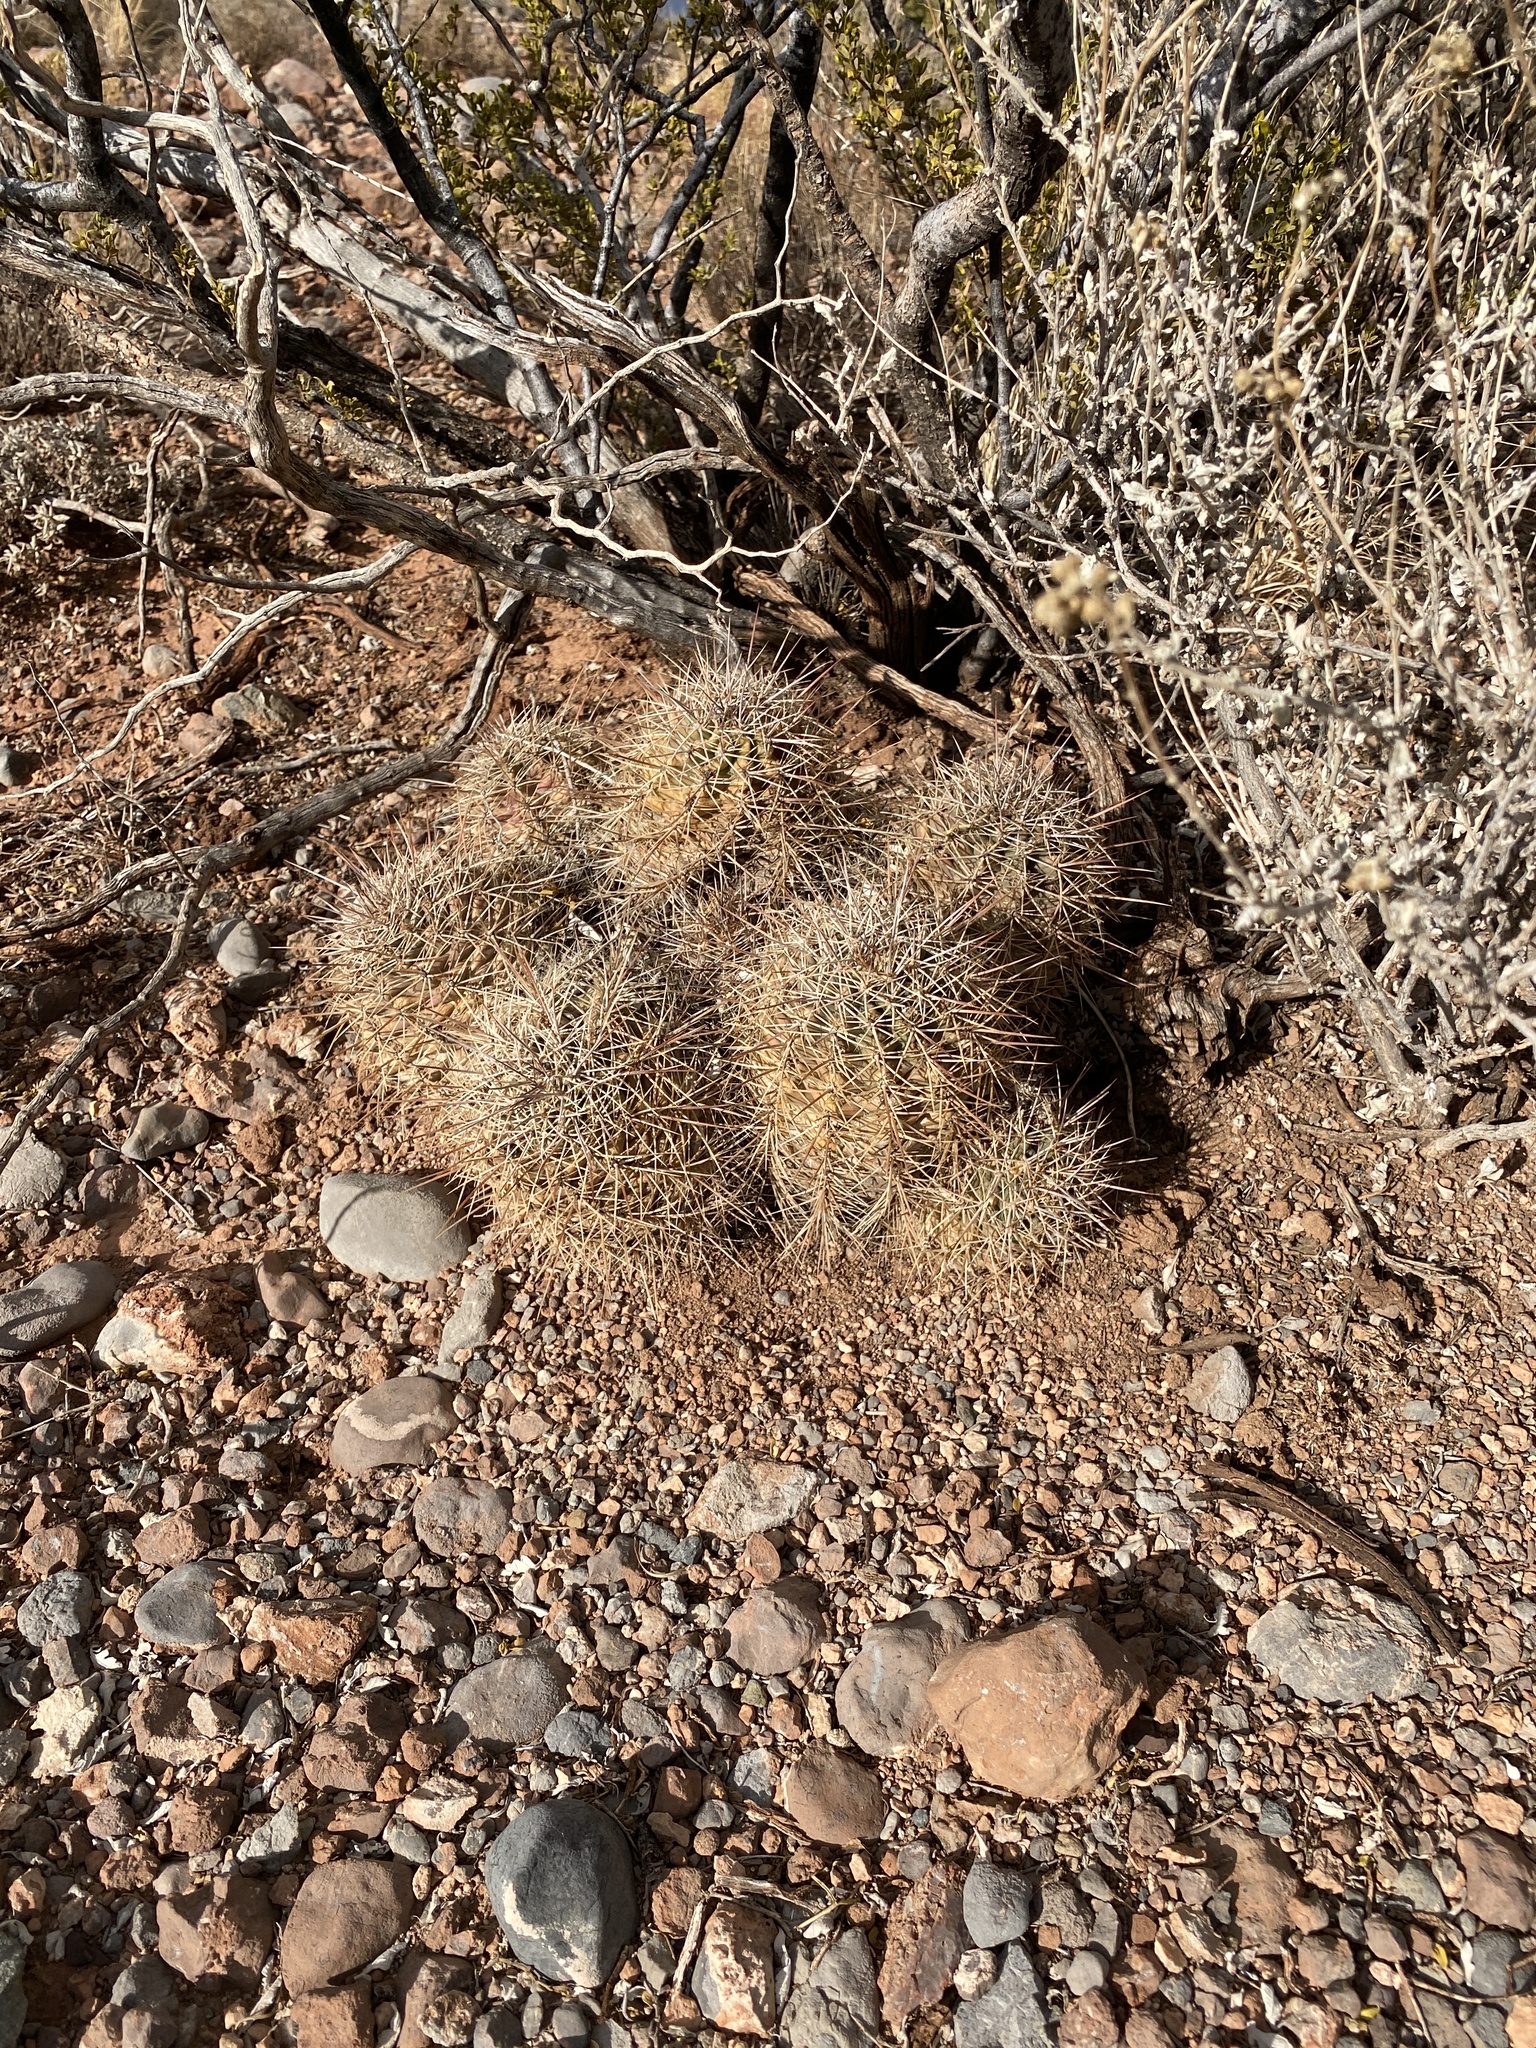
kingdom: Plantae
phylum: Tracheophyta
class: Magnoliopsida
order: Caryophyllales
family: Cactaceae
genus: Echinocereus
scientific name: Echinocereus coccineus
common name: Scarlet hedgehog cactus
